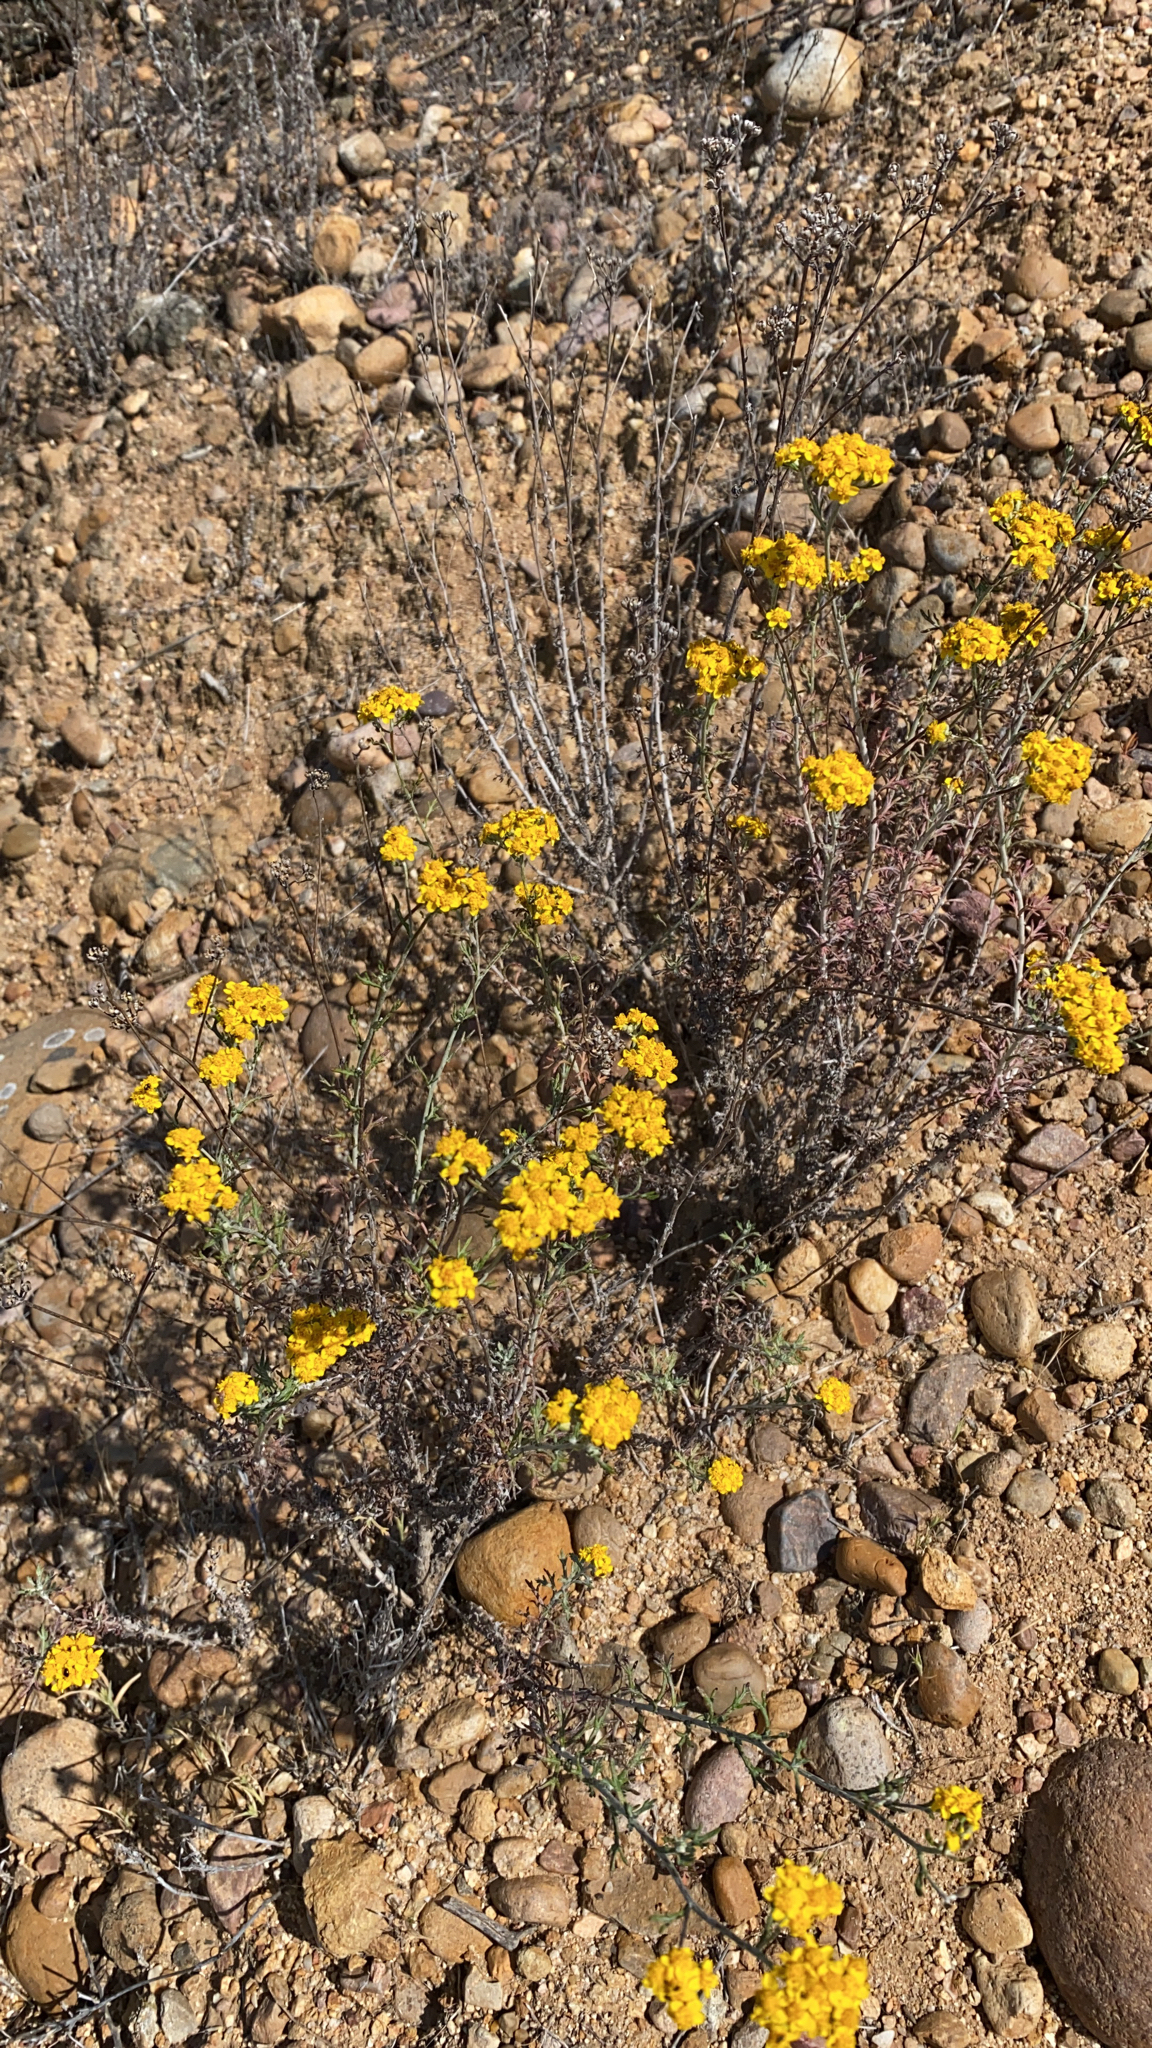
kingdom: Plantae
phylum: Tracheophyta
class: Magnoliopsida
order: Asterales
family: Asteraceae
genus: Eriophyllum
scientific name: Eriophyllum confertiflorum
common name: Golden-yarrow
